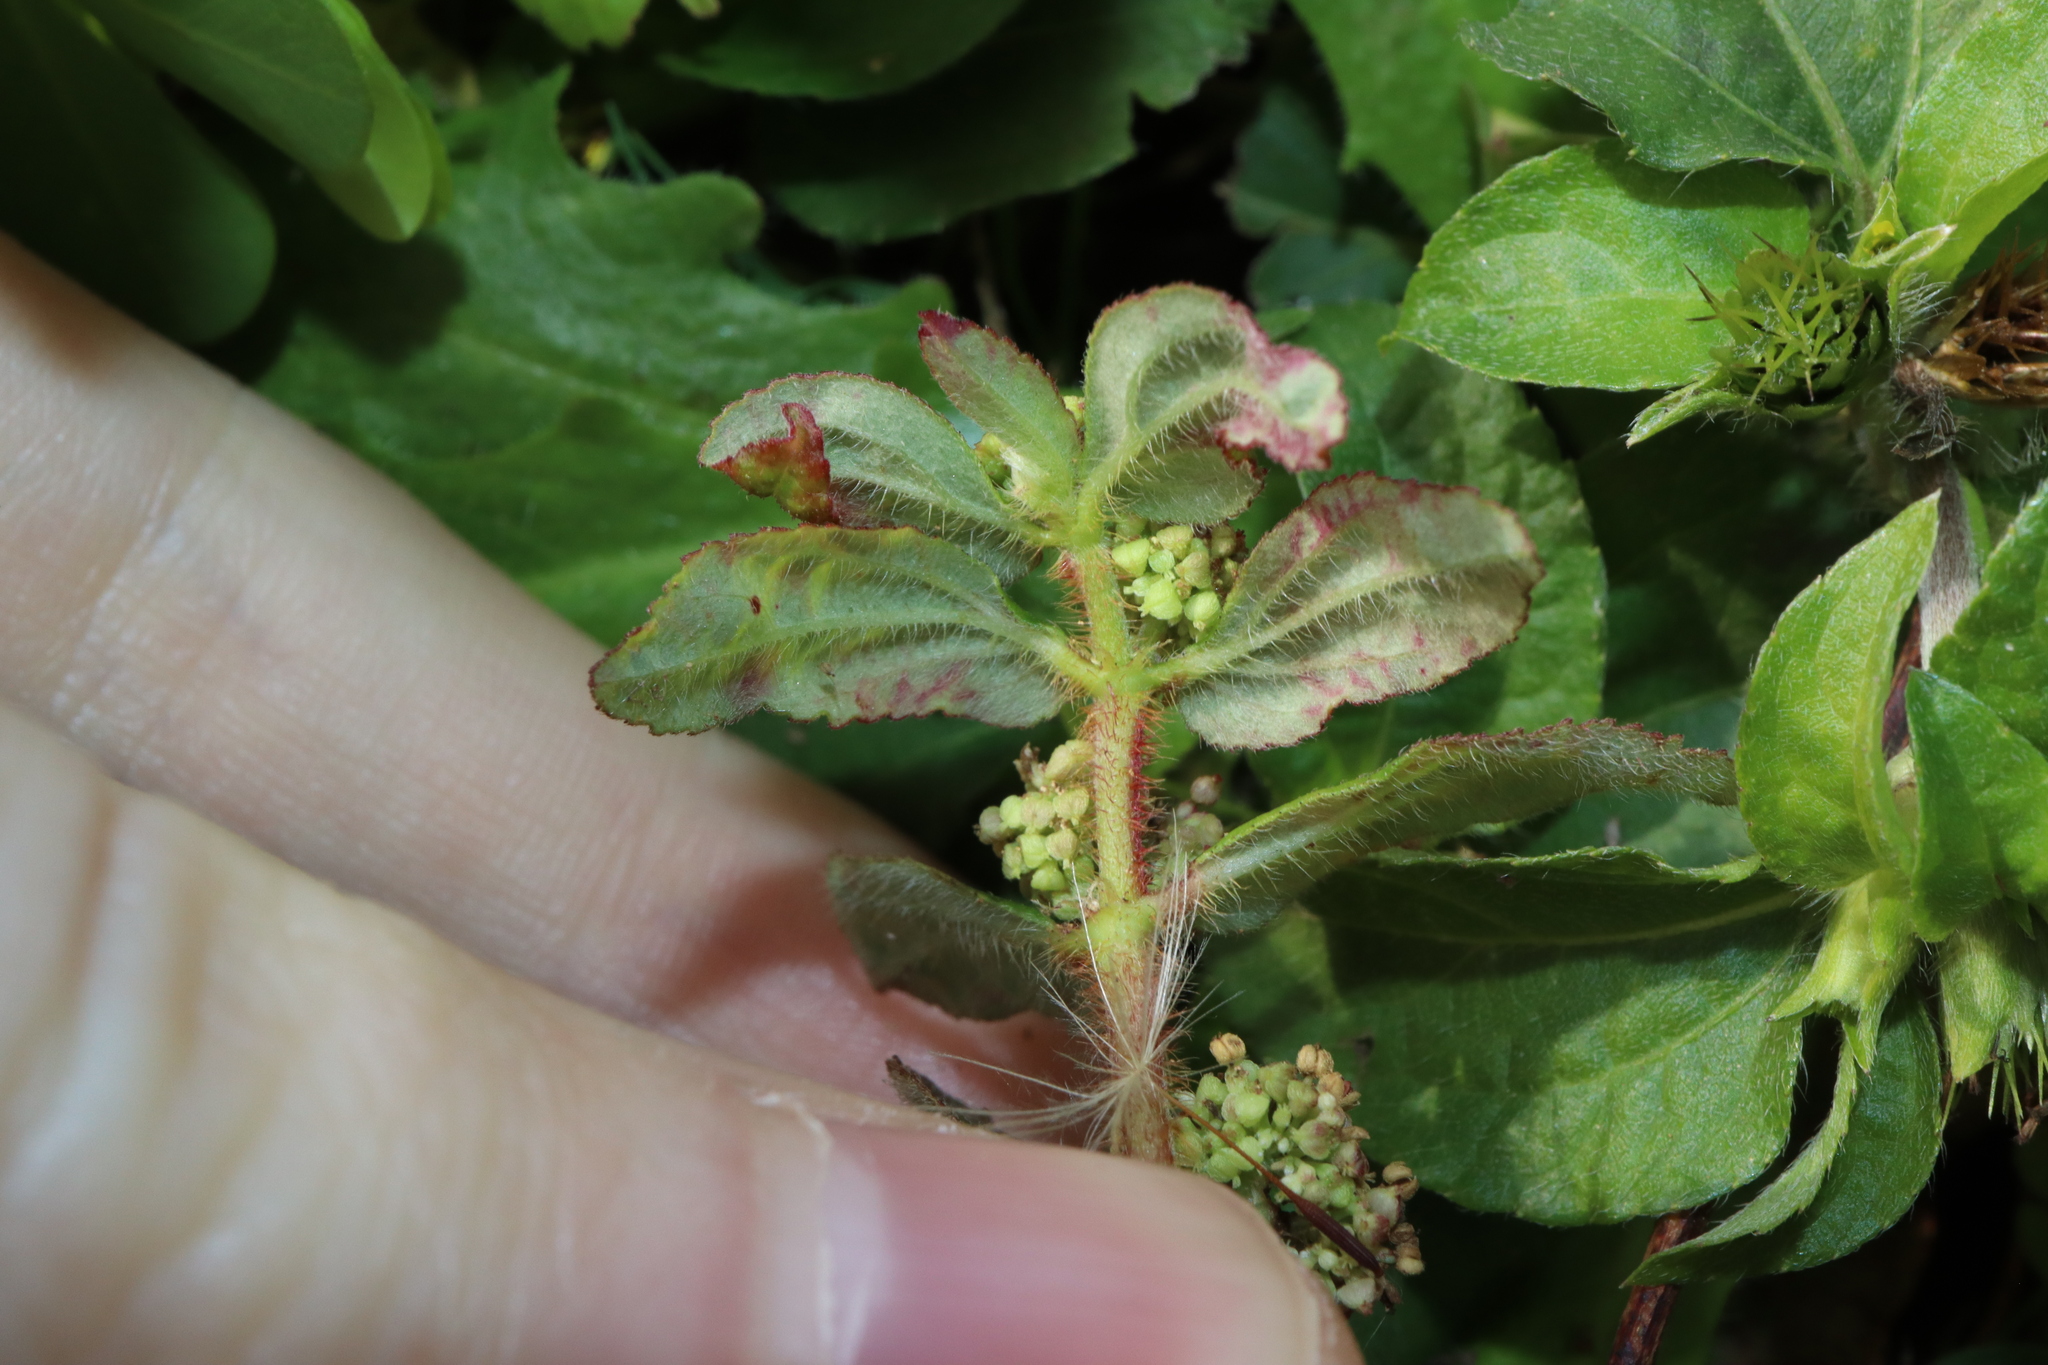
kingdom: Plantae
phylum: Tracheophyta
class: Magnoliopsida
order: Malpighiales
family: Euphorbiaceae
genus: Euphorbia
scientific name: Euphorbia hirta
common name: Pillpod sandmat
